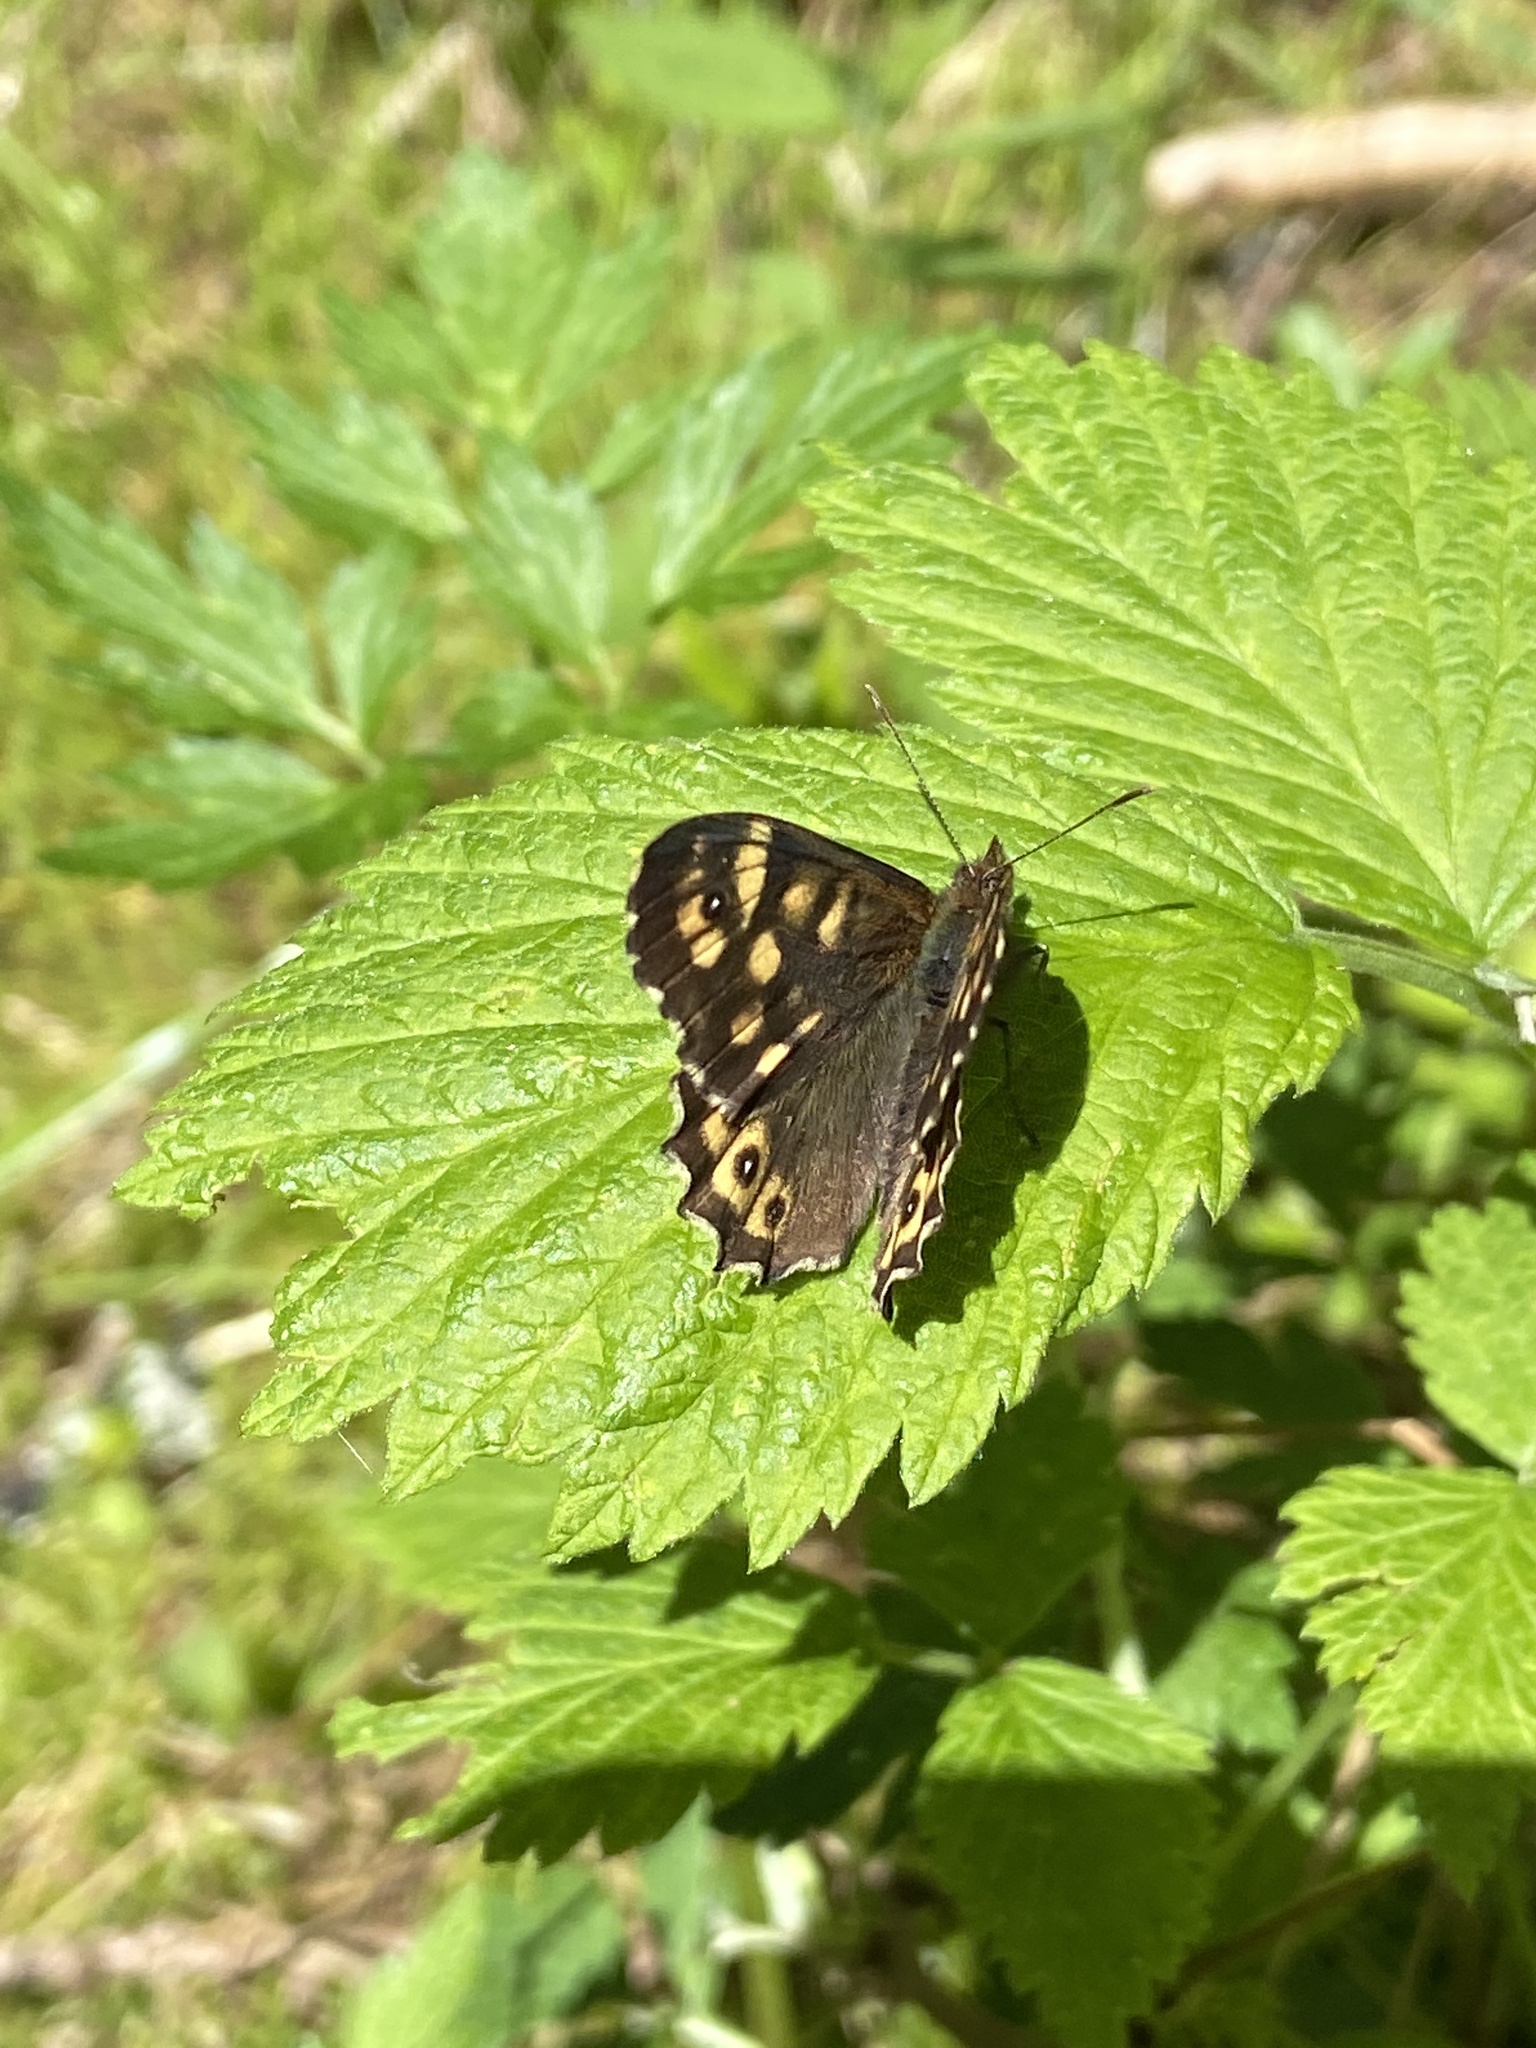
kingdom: Animalia
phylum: Arthropoda
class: Insecta
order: Lepidoptera
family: Nymphalidae
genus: Pararge
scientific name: Pararge aegeria
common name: Speckled wood
